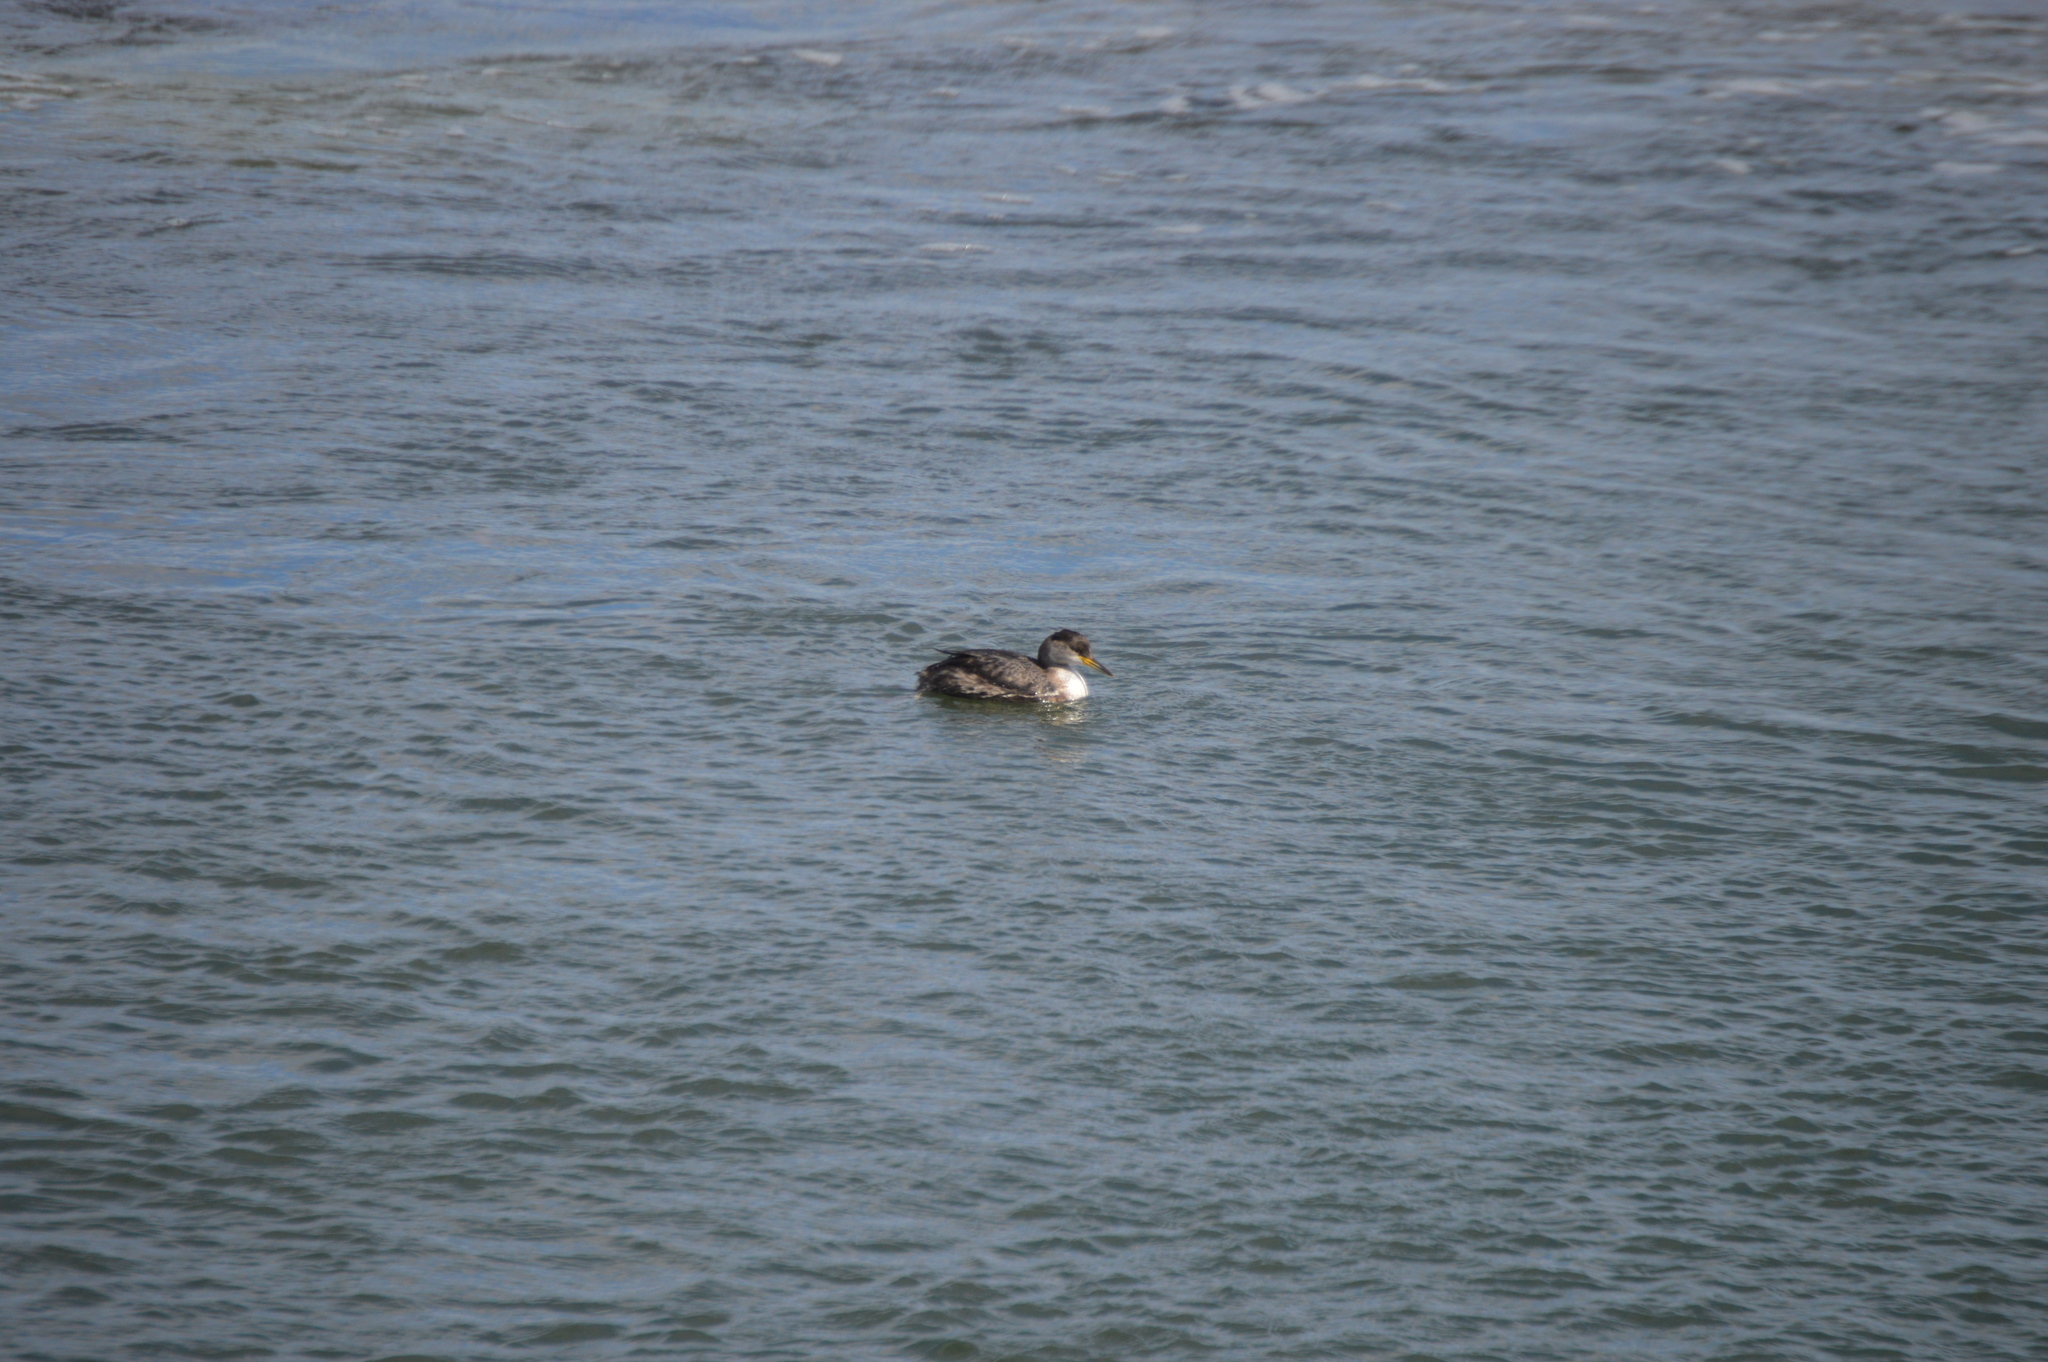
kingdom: Animalia
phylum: Chordata
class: Aves
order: Podicipediformes
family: Podicipedidae
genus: Podiceps
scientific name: Podiceps grisegena
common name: Red-necked grebe
